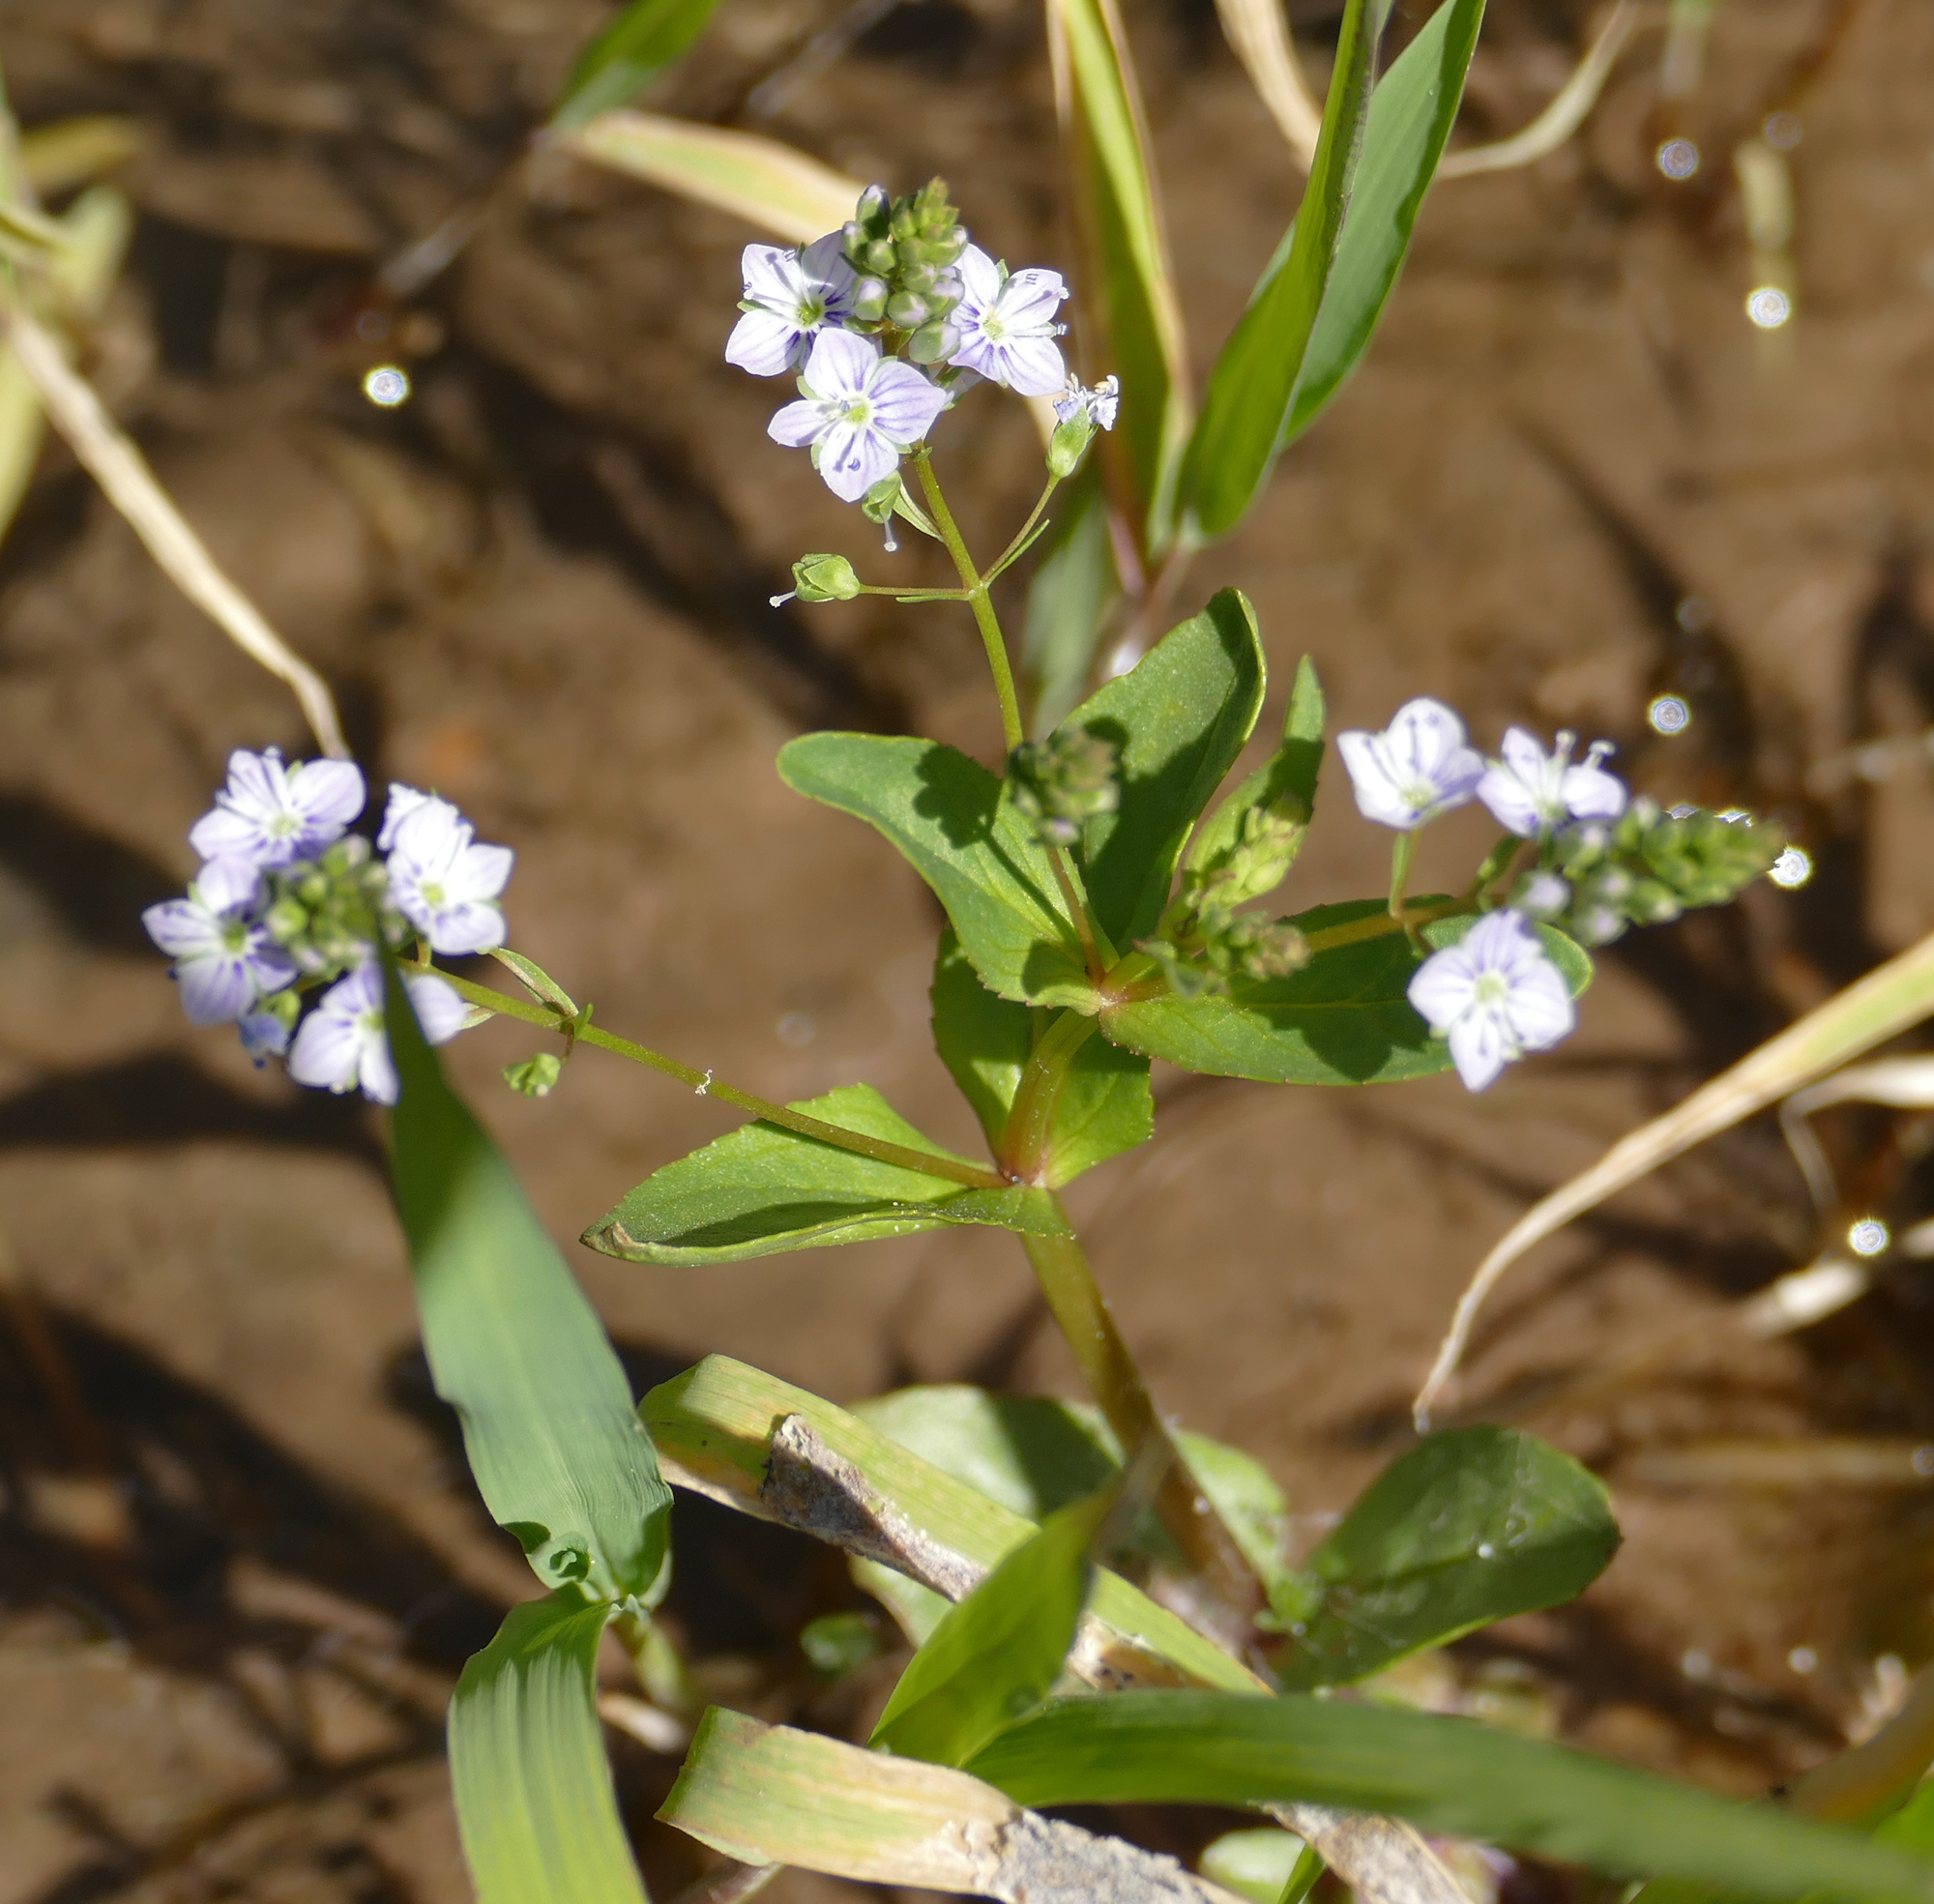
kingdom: Plantae
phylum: Tracheophyta
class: Magnoliopsida
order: Lamiales
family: Plantaginaceae
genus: Veronica
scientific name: Veronica anagallis-aquatica
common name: Water speedwell
